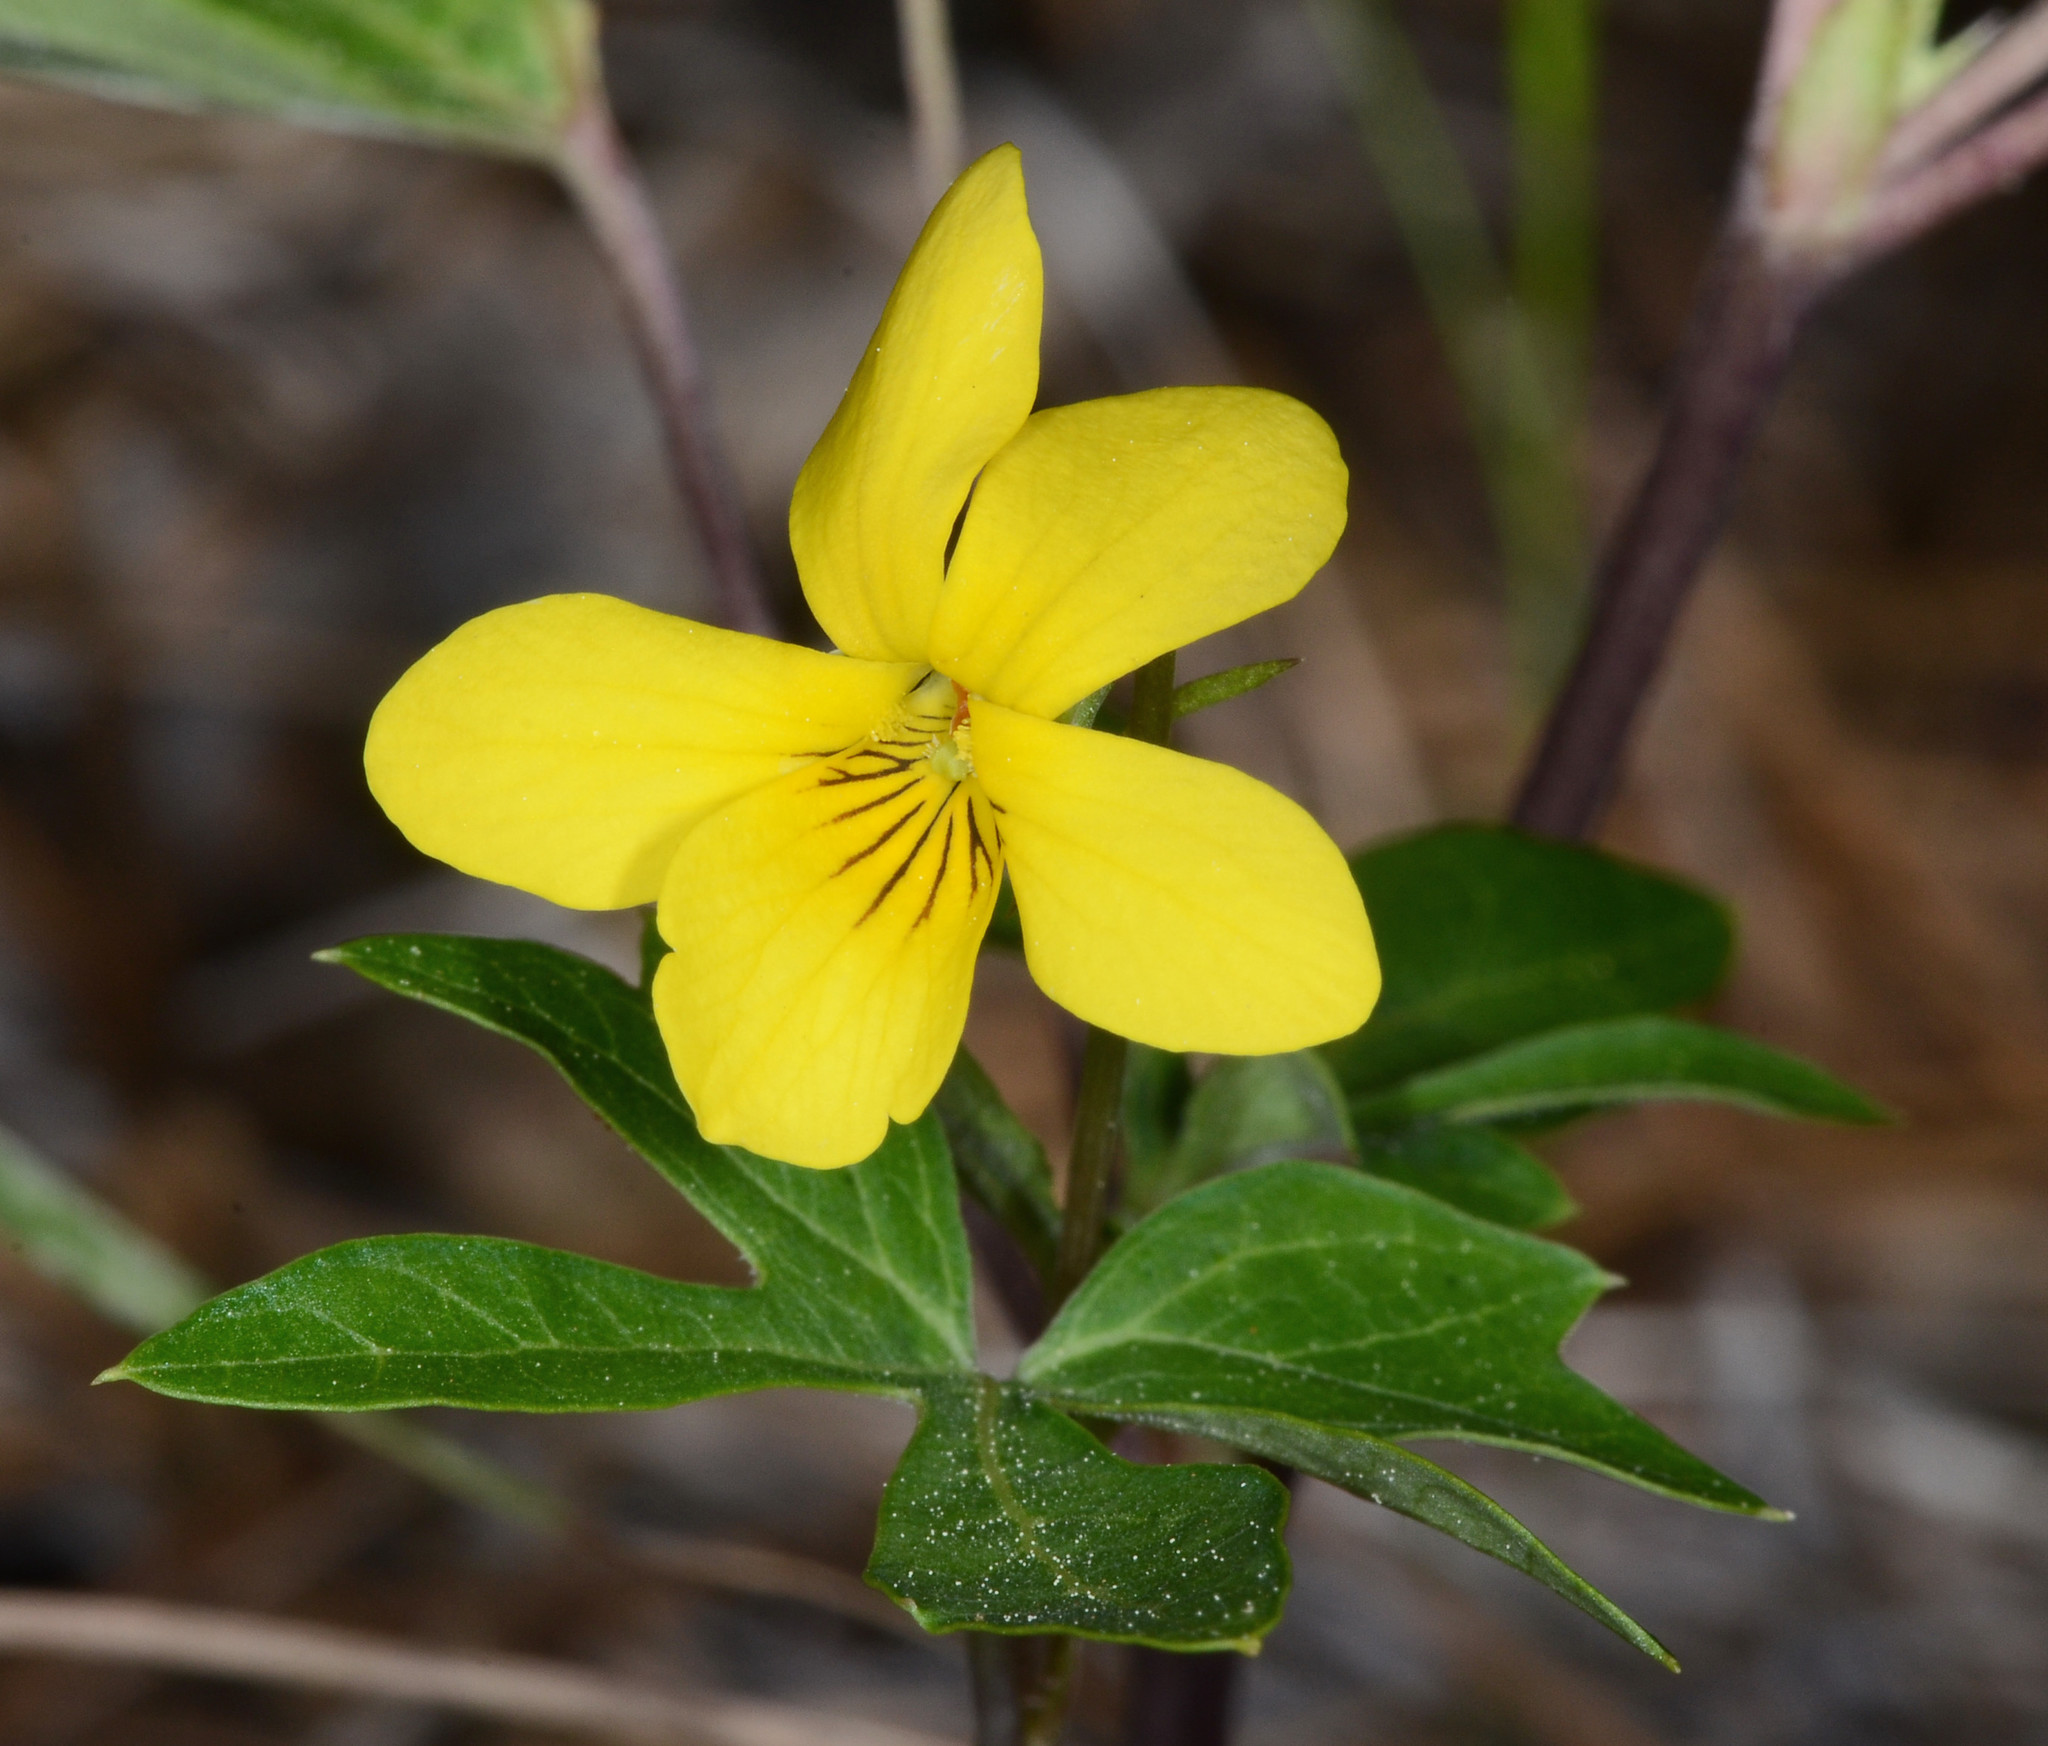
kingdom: Plantae
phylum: Tracheophyta
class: Magnoliopsida
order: Malpighiales
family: Violaceae
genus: Viola
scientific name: Viola lobata
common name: Pine violet
